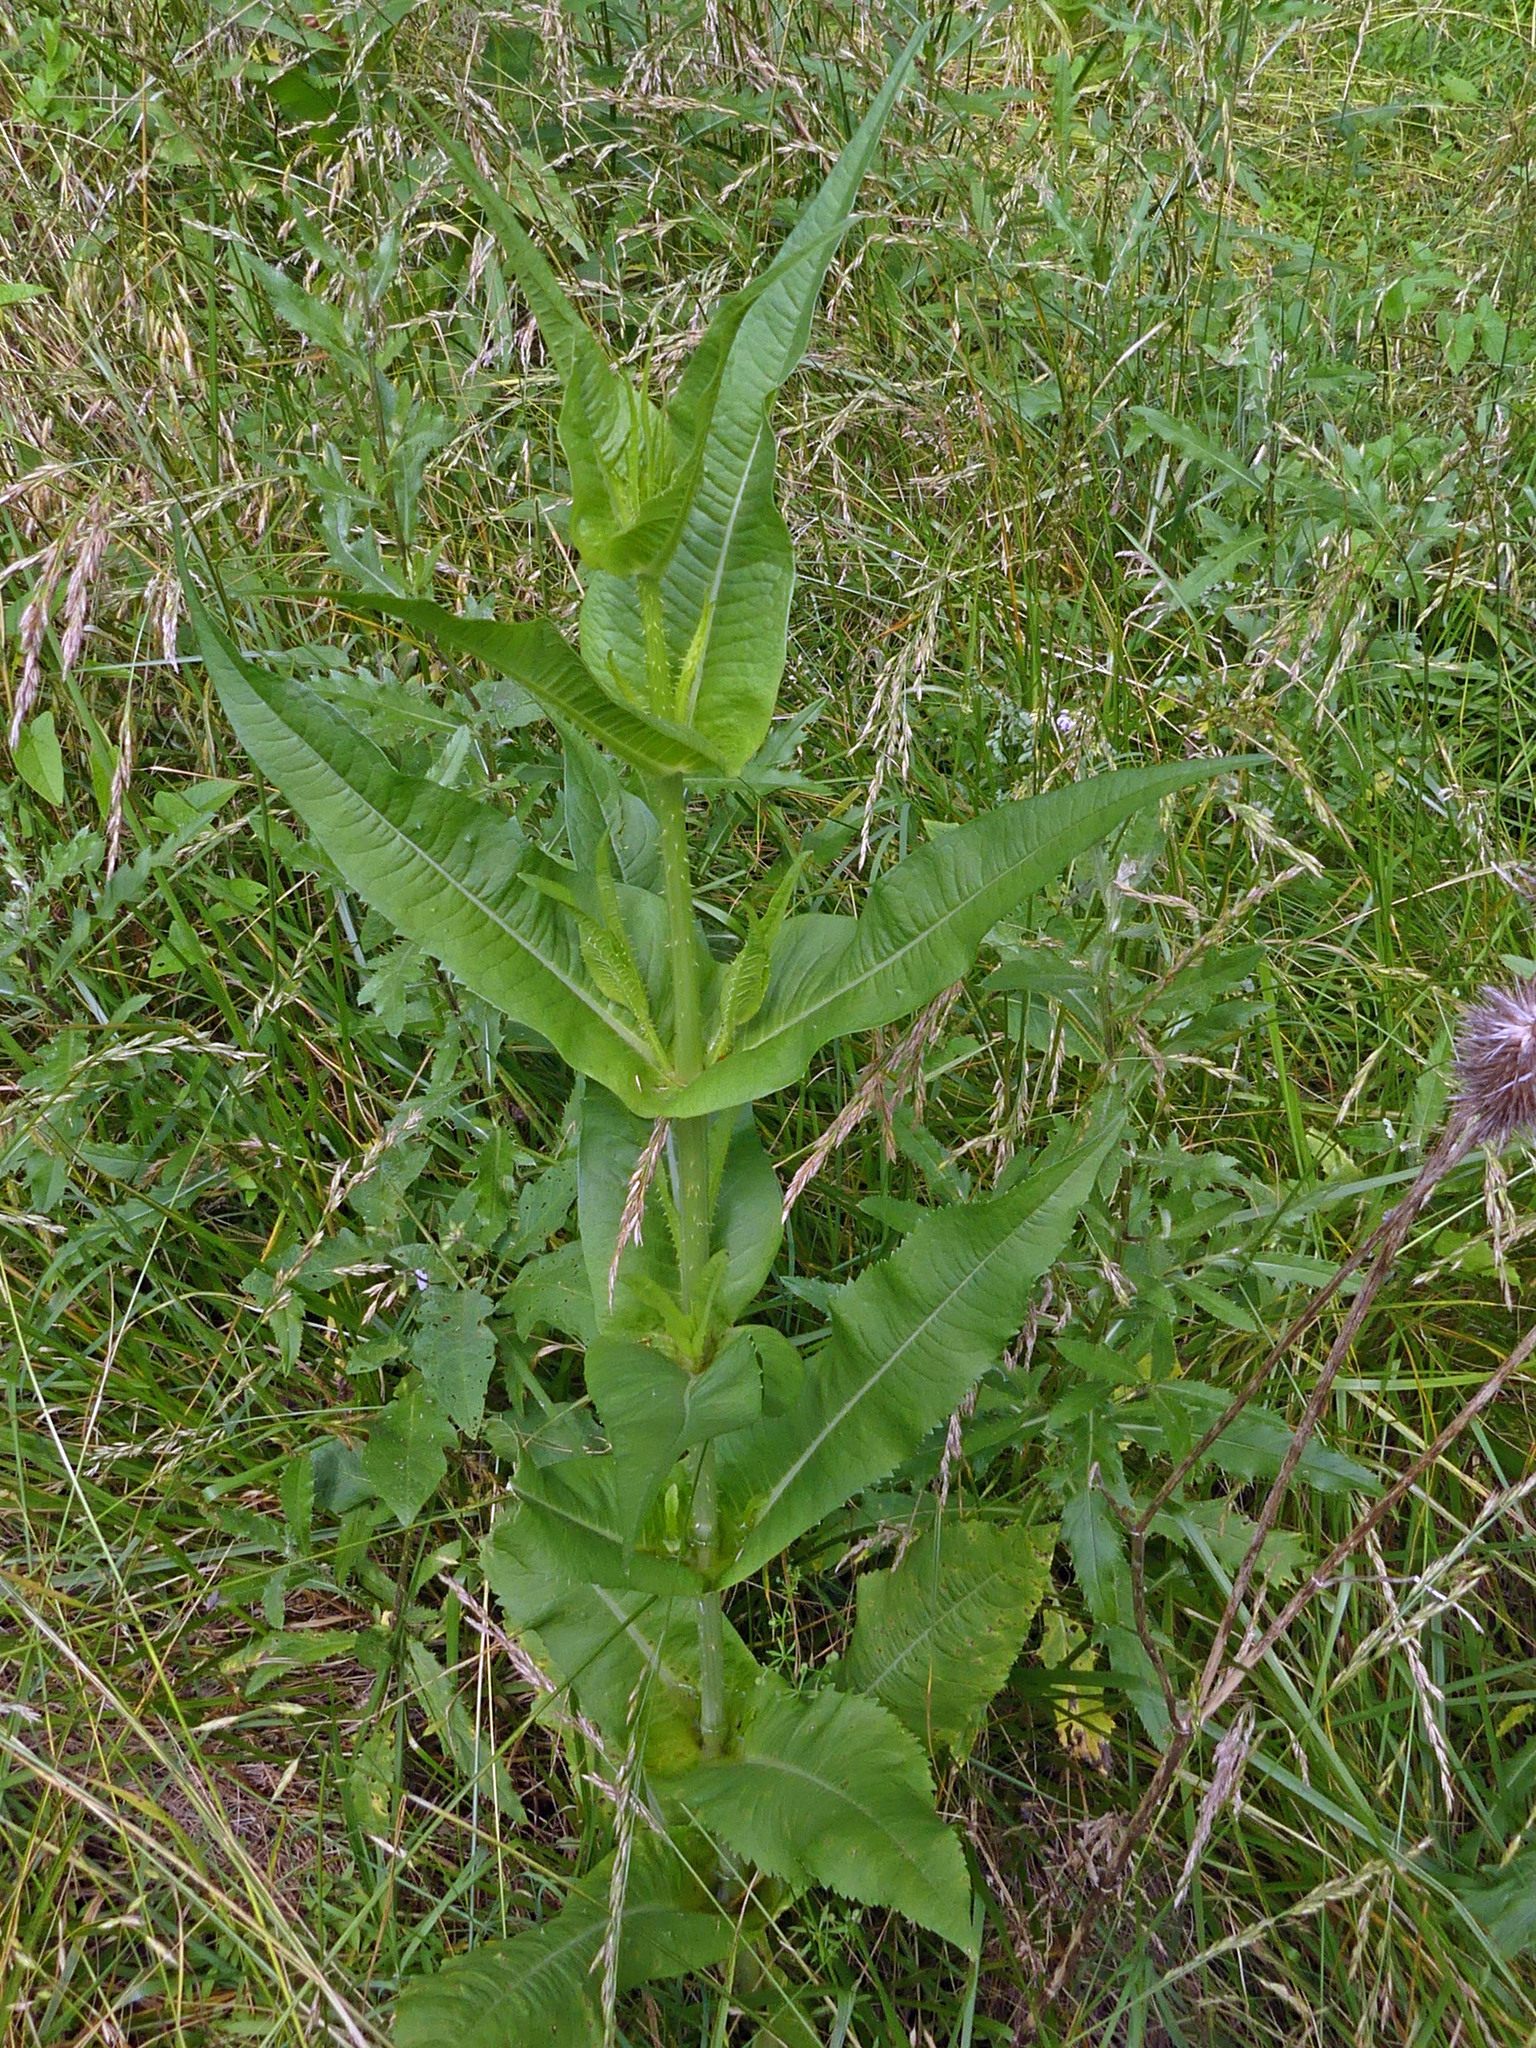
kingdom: Plantae
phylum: Tracheophyta
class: Magnoliopsida
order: Dipsacales
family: Caprifoliaceae
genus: Dipsacus
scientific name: Dipsacus fullonum
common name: Teasel
